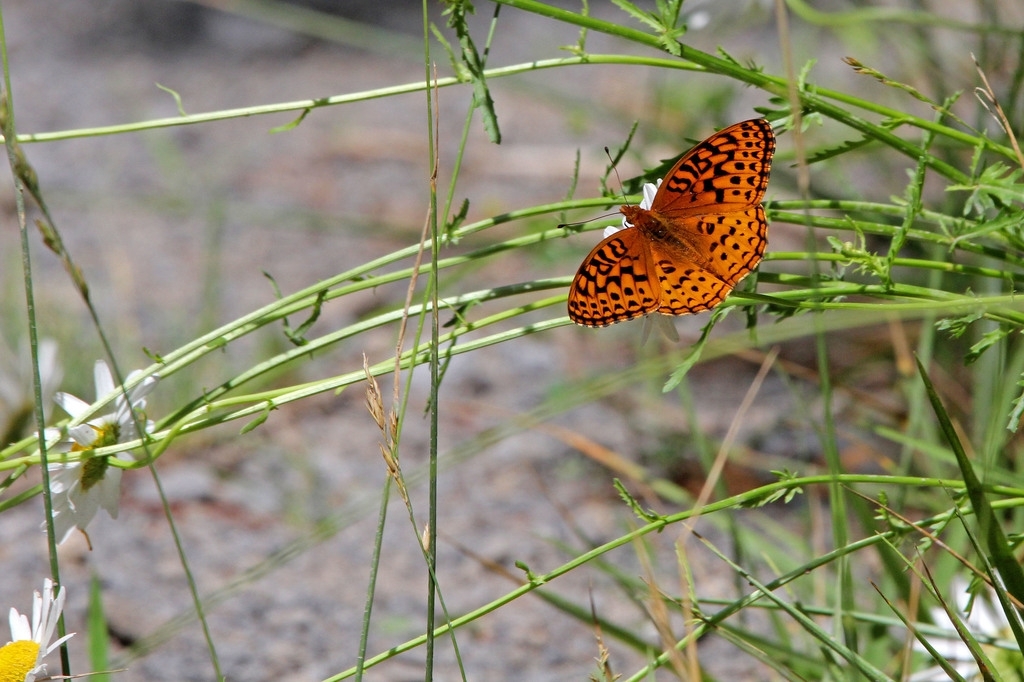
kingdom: Animalia
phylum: Arthropoda
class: Insecta
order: Lepidoptera
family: Nymphalidae
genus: Speyeria
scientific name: Speyeria aphrodite
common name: Aphrodite friitllary
